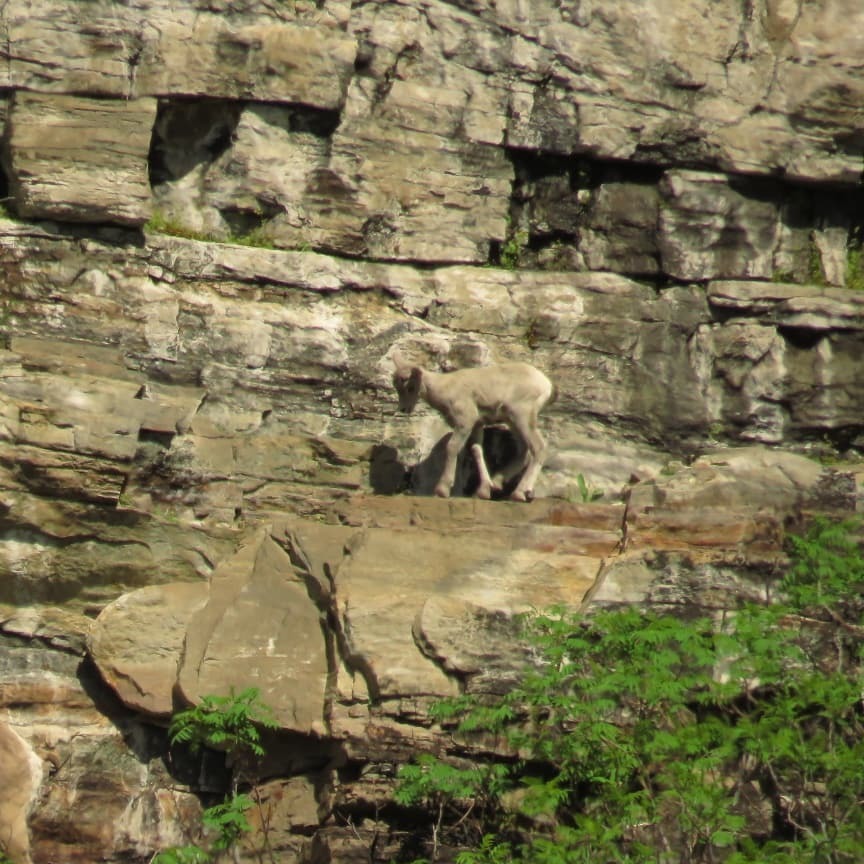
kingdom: Animalia
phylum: Chordata
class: Mammalia
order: Artiodactyla
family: Bovidae
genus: Ovis
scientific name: Ovis canadensis
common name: Bighorn sheep
